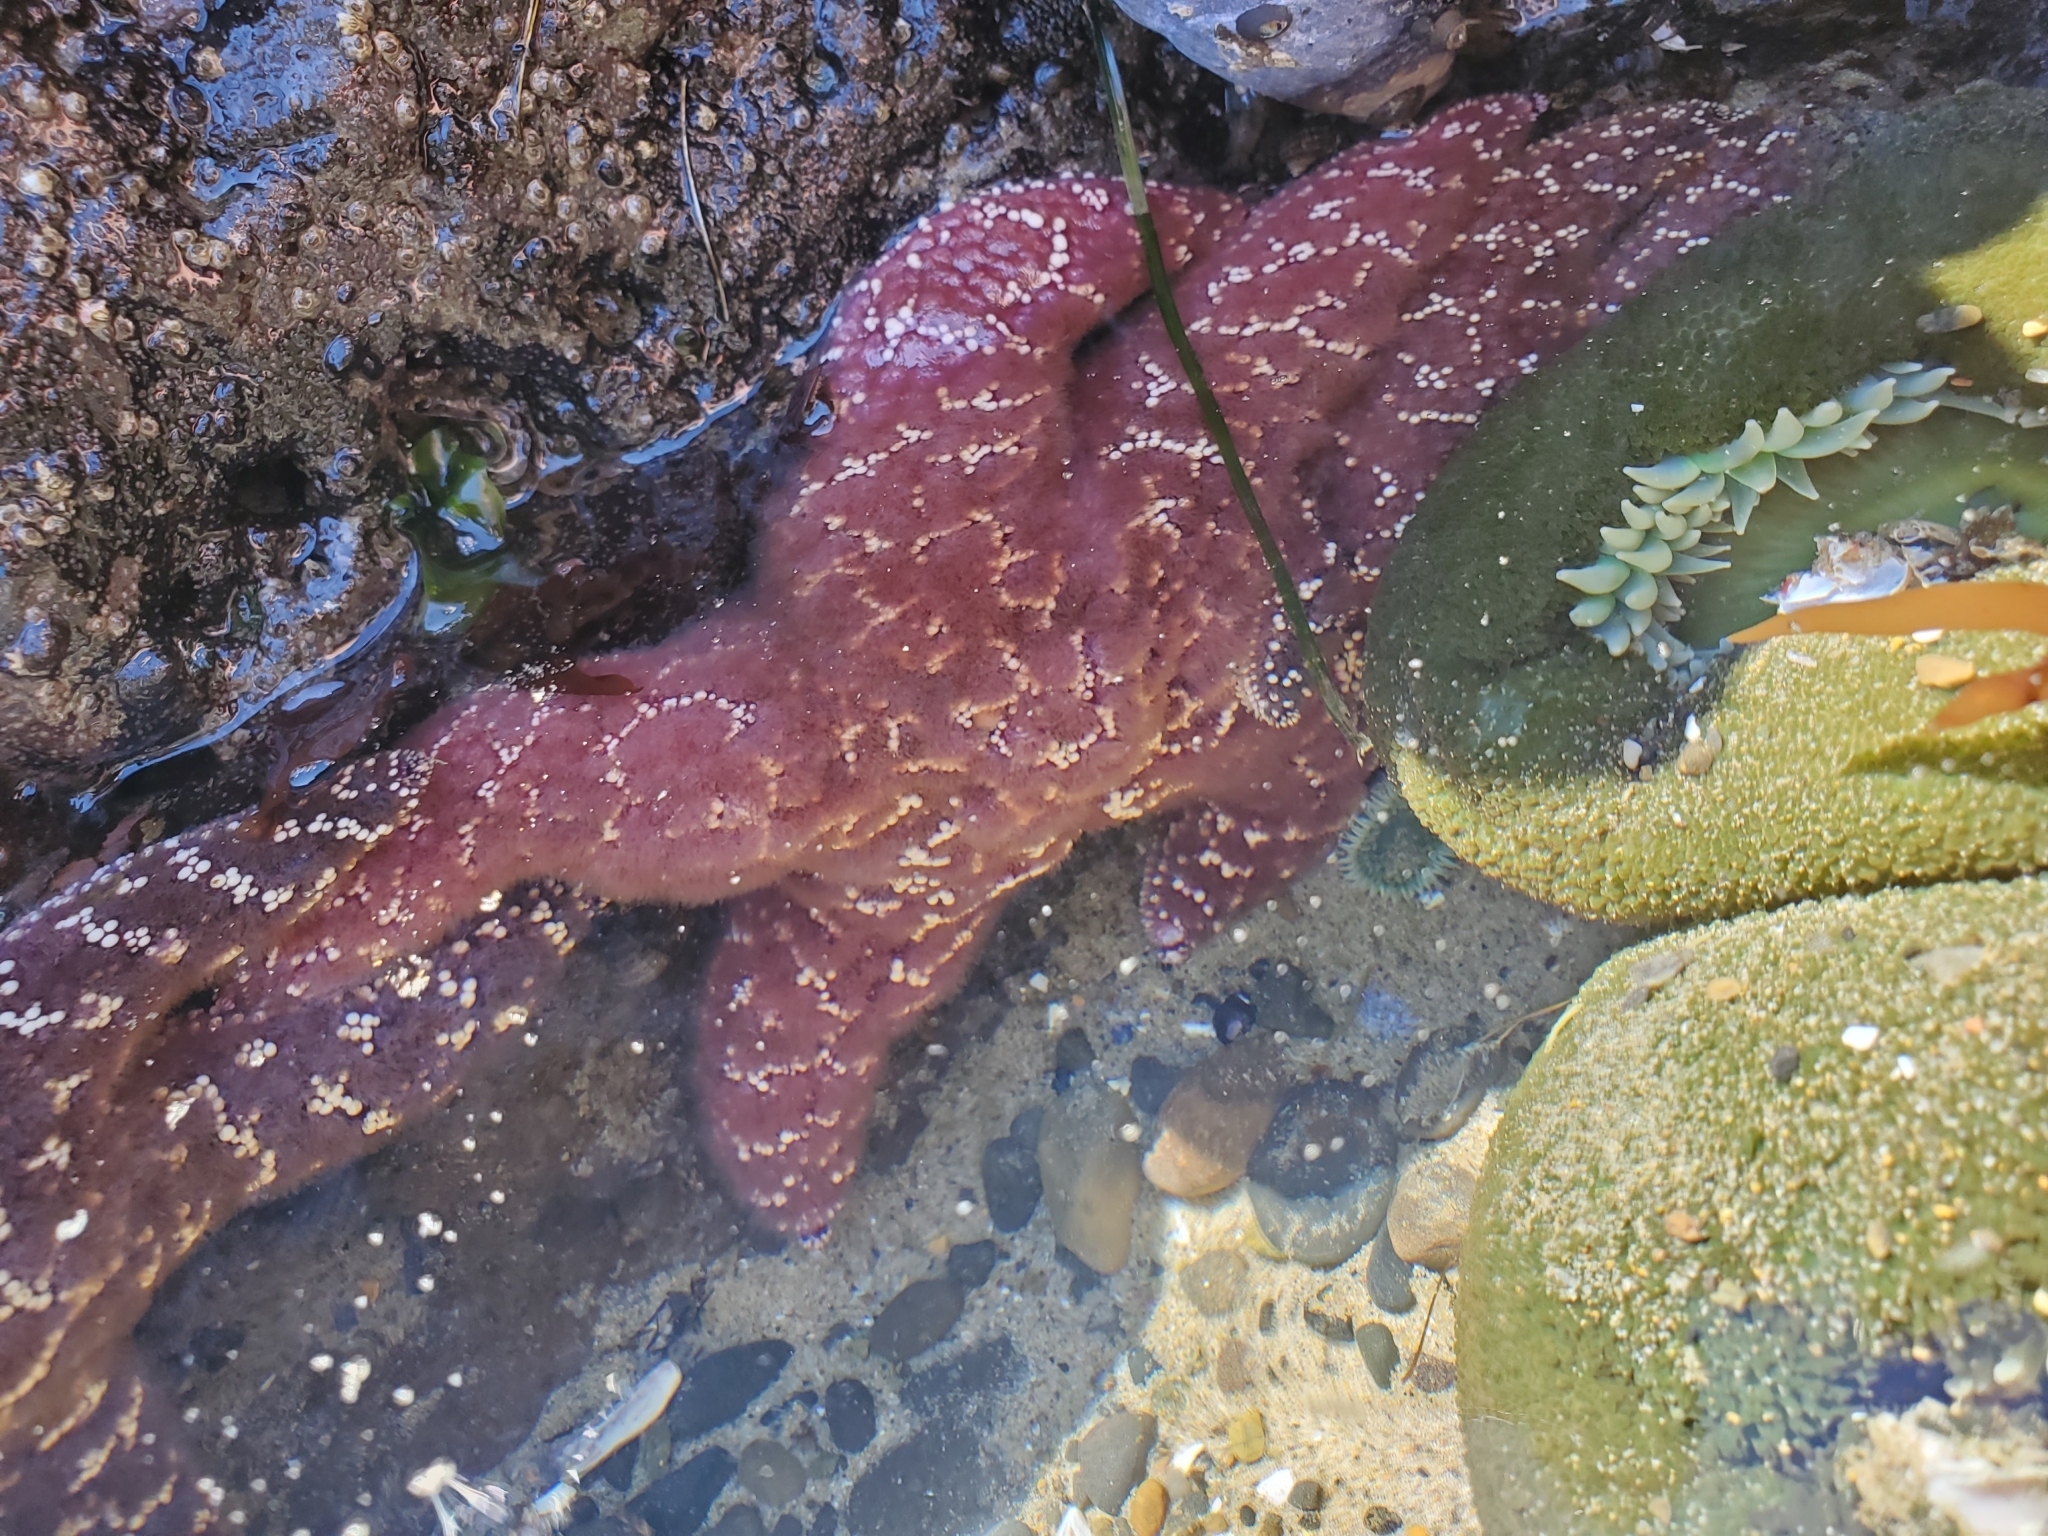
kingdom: Animalia
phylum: Echinodermata
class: Asteroidea
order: Forcipulatida
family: Asteriidae
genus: Pisaster
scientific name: Pisaster ochraceus
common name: Ochre stars
